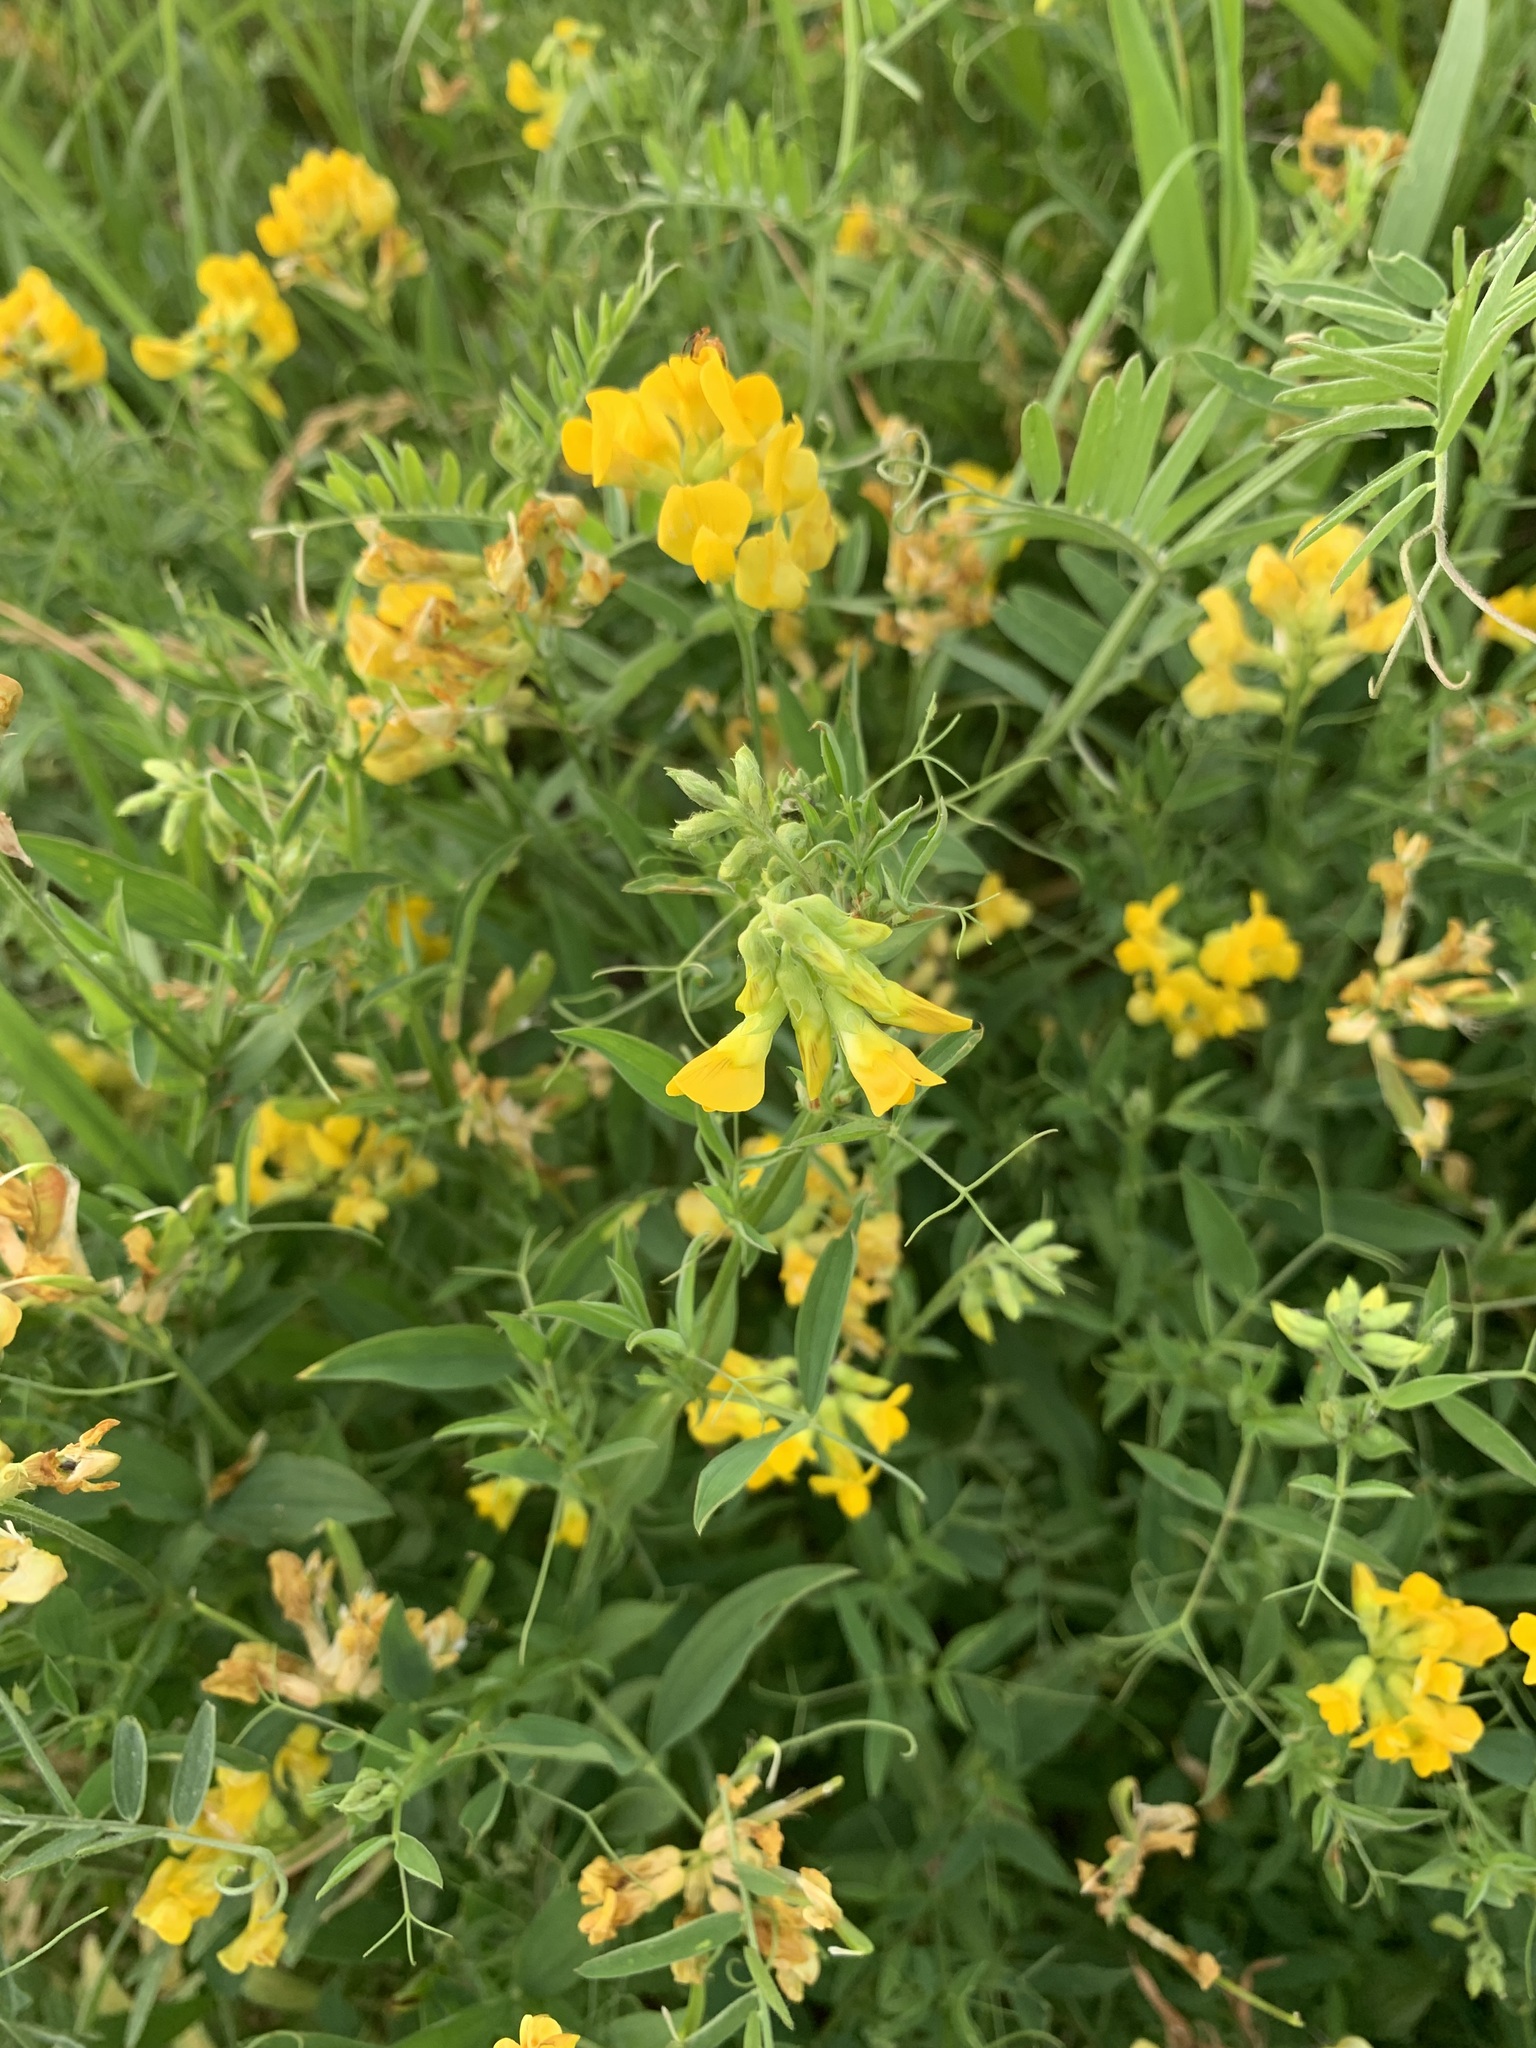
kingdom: Plantae
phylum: Tracheophyta
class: Magnoliopsida
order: Fabales
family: Fabaceae
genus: Lathyrus
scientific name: Lathyrus pratensis
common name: Meadow vetchling
